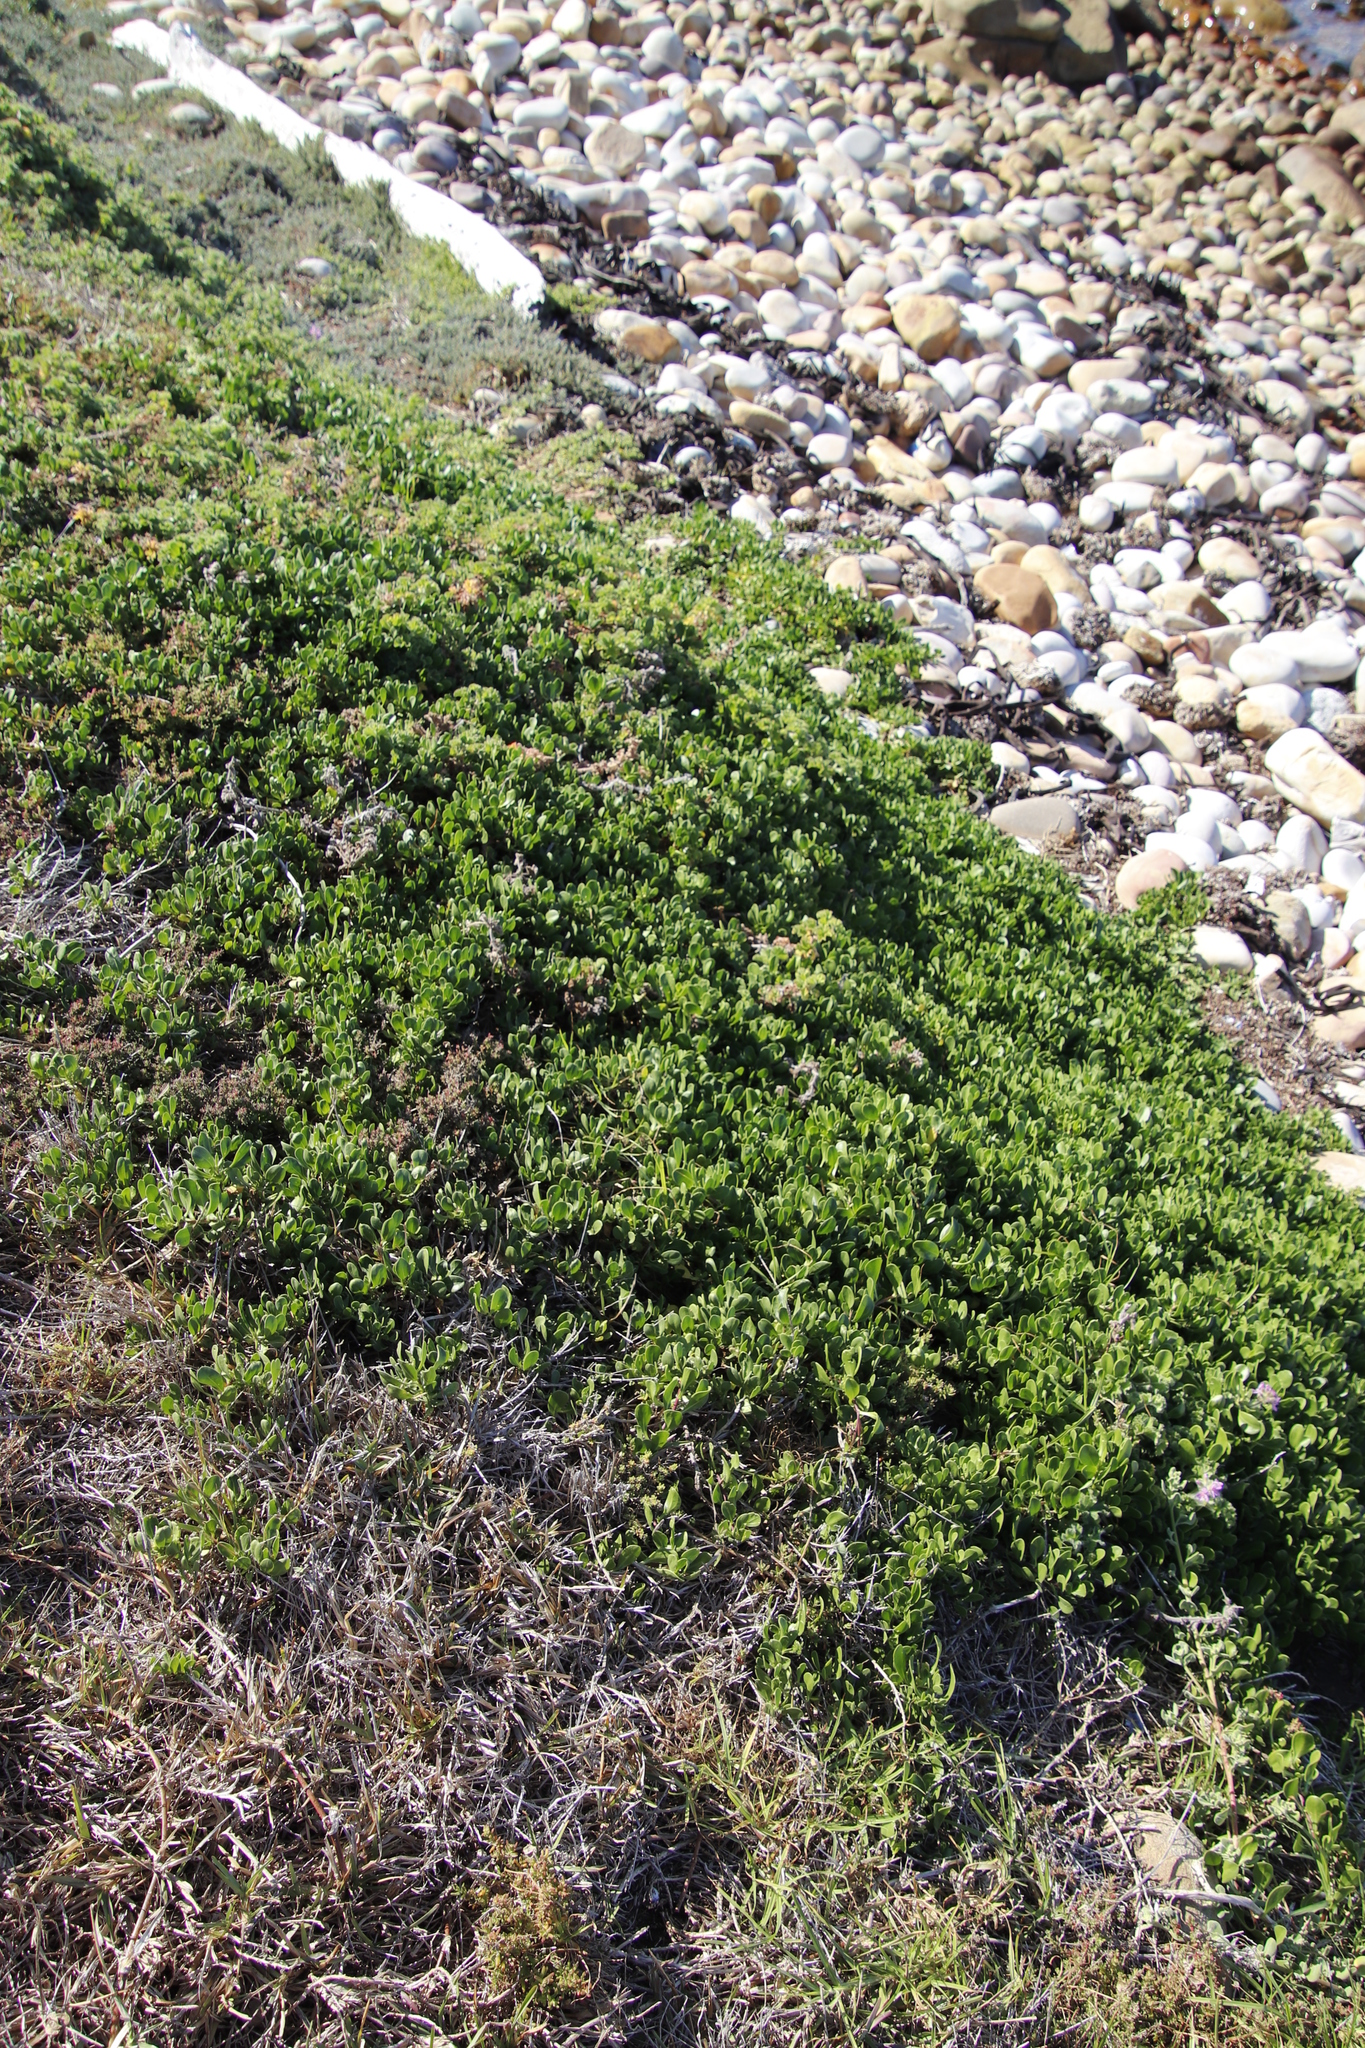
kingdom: Plantae
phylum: Tracheophyta
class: Magnoliopsida
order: Asterales
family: Asteraceae
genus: Dimorphotheca
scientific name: Dimorphotheca fruticosa
